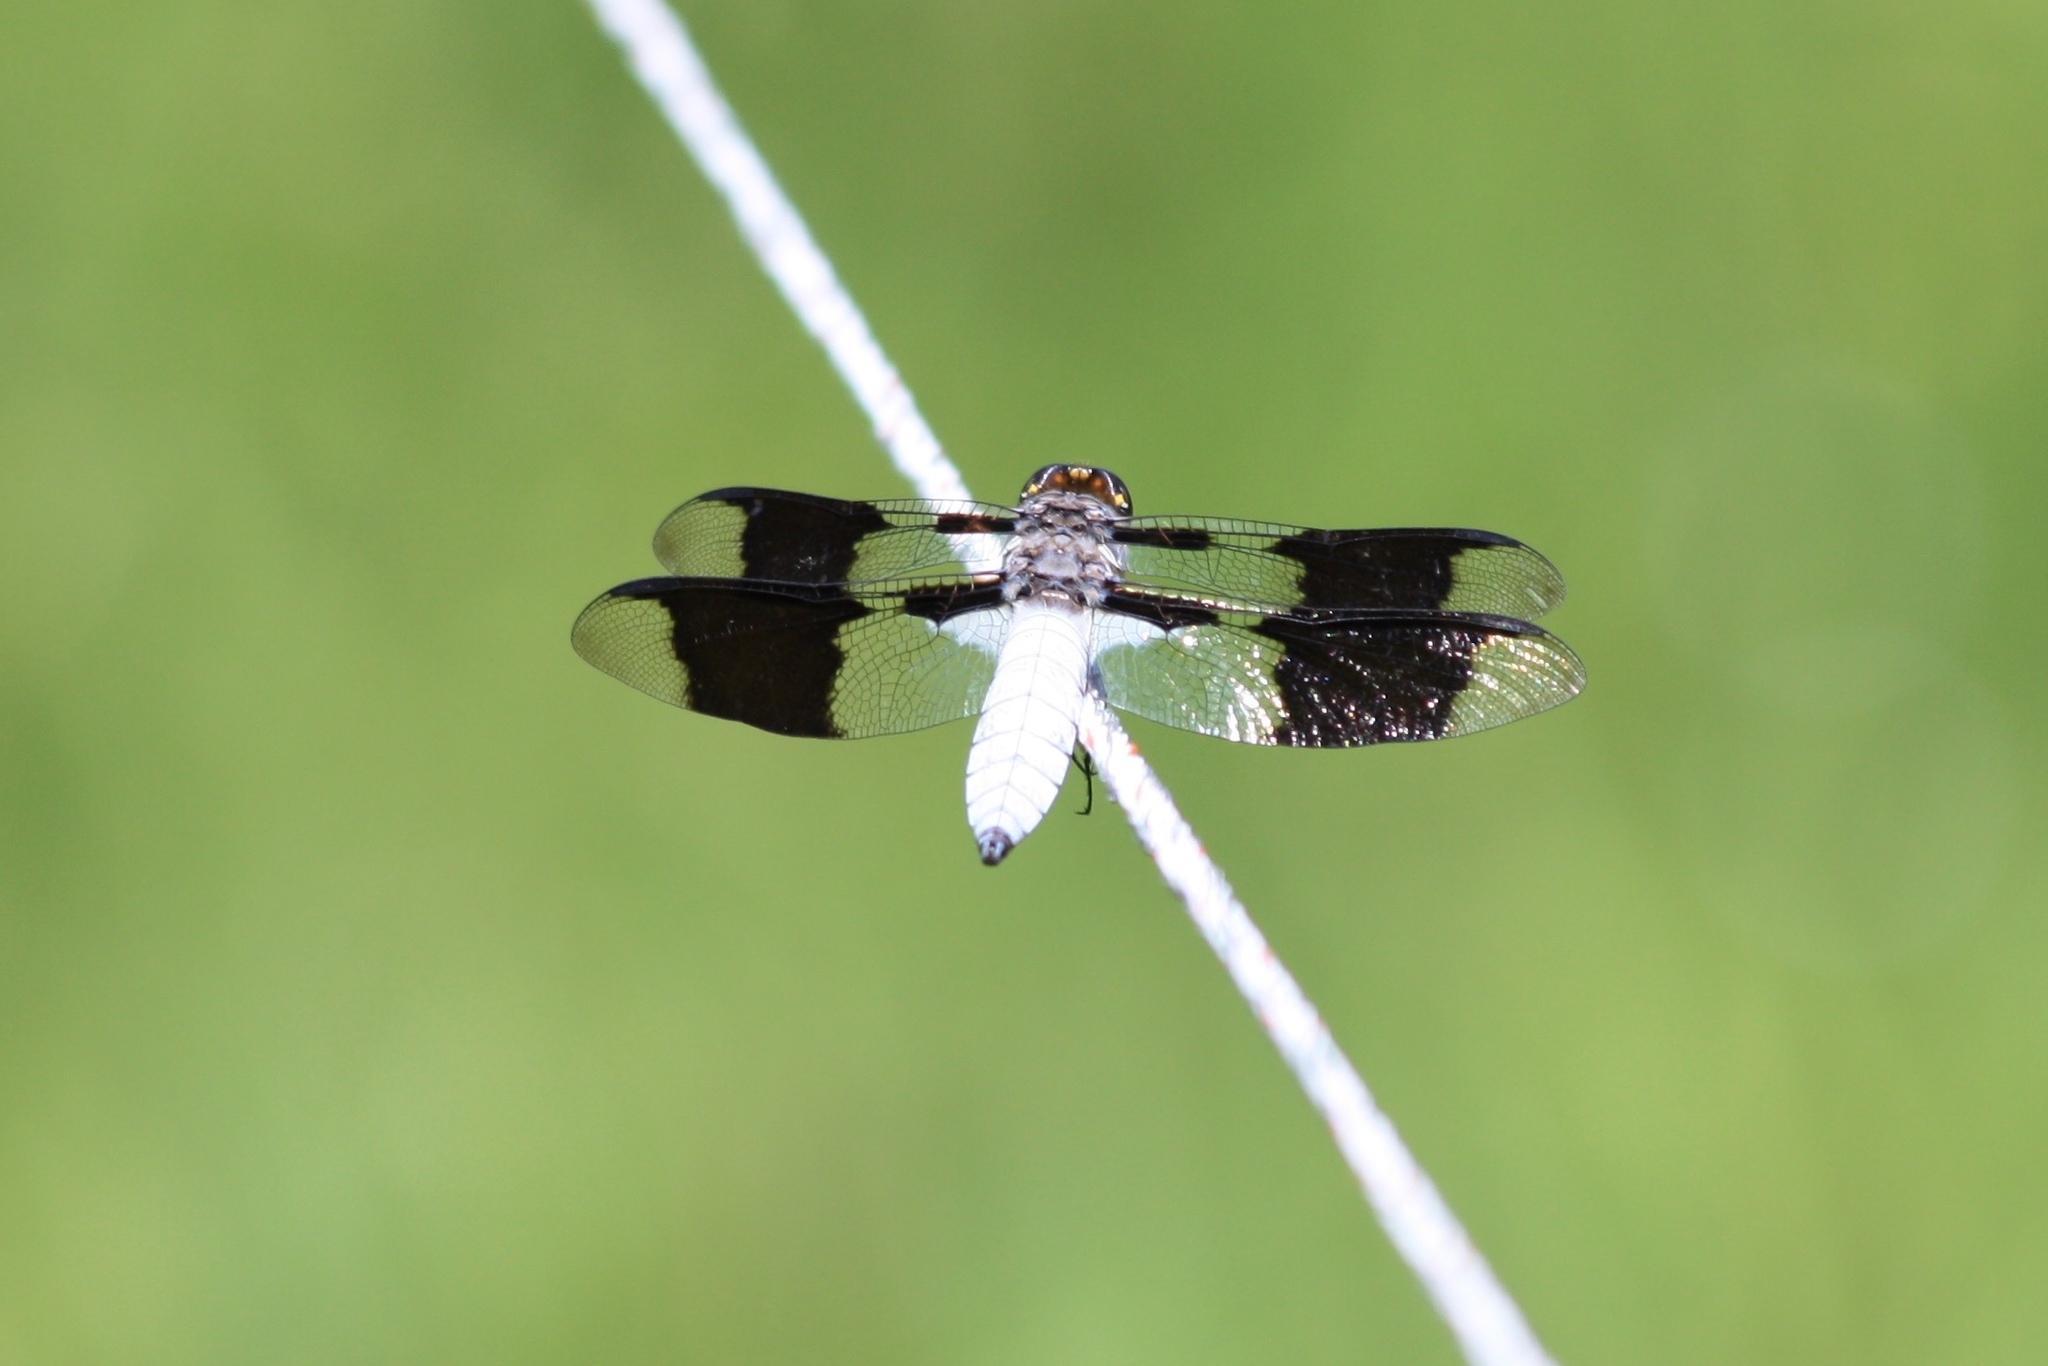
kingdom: Animalia
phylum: Arthropoda
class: Insecta
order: Odonata
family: Libellulidae
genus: Plathemis
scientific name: Plathemis lydia
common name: Common whitetail
